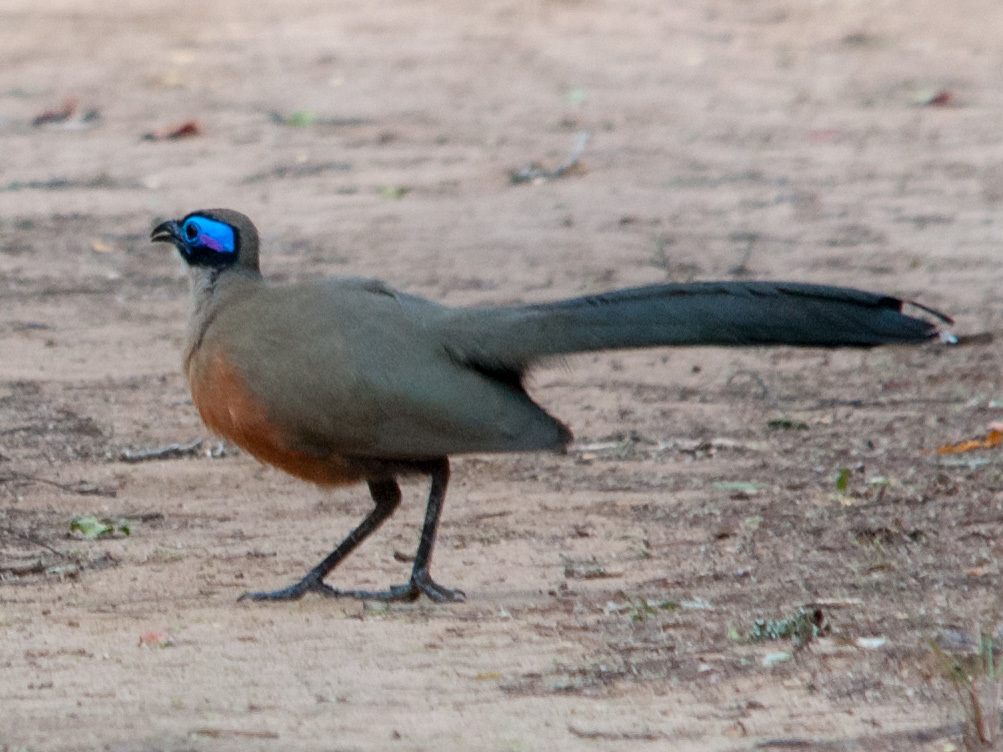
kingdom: Animalia
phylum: Chordata
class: Aves
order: Cuculiformes
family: Cuculidae
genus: Coua
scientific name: Coua gigas
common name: Giant coua
